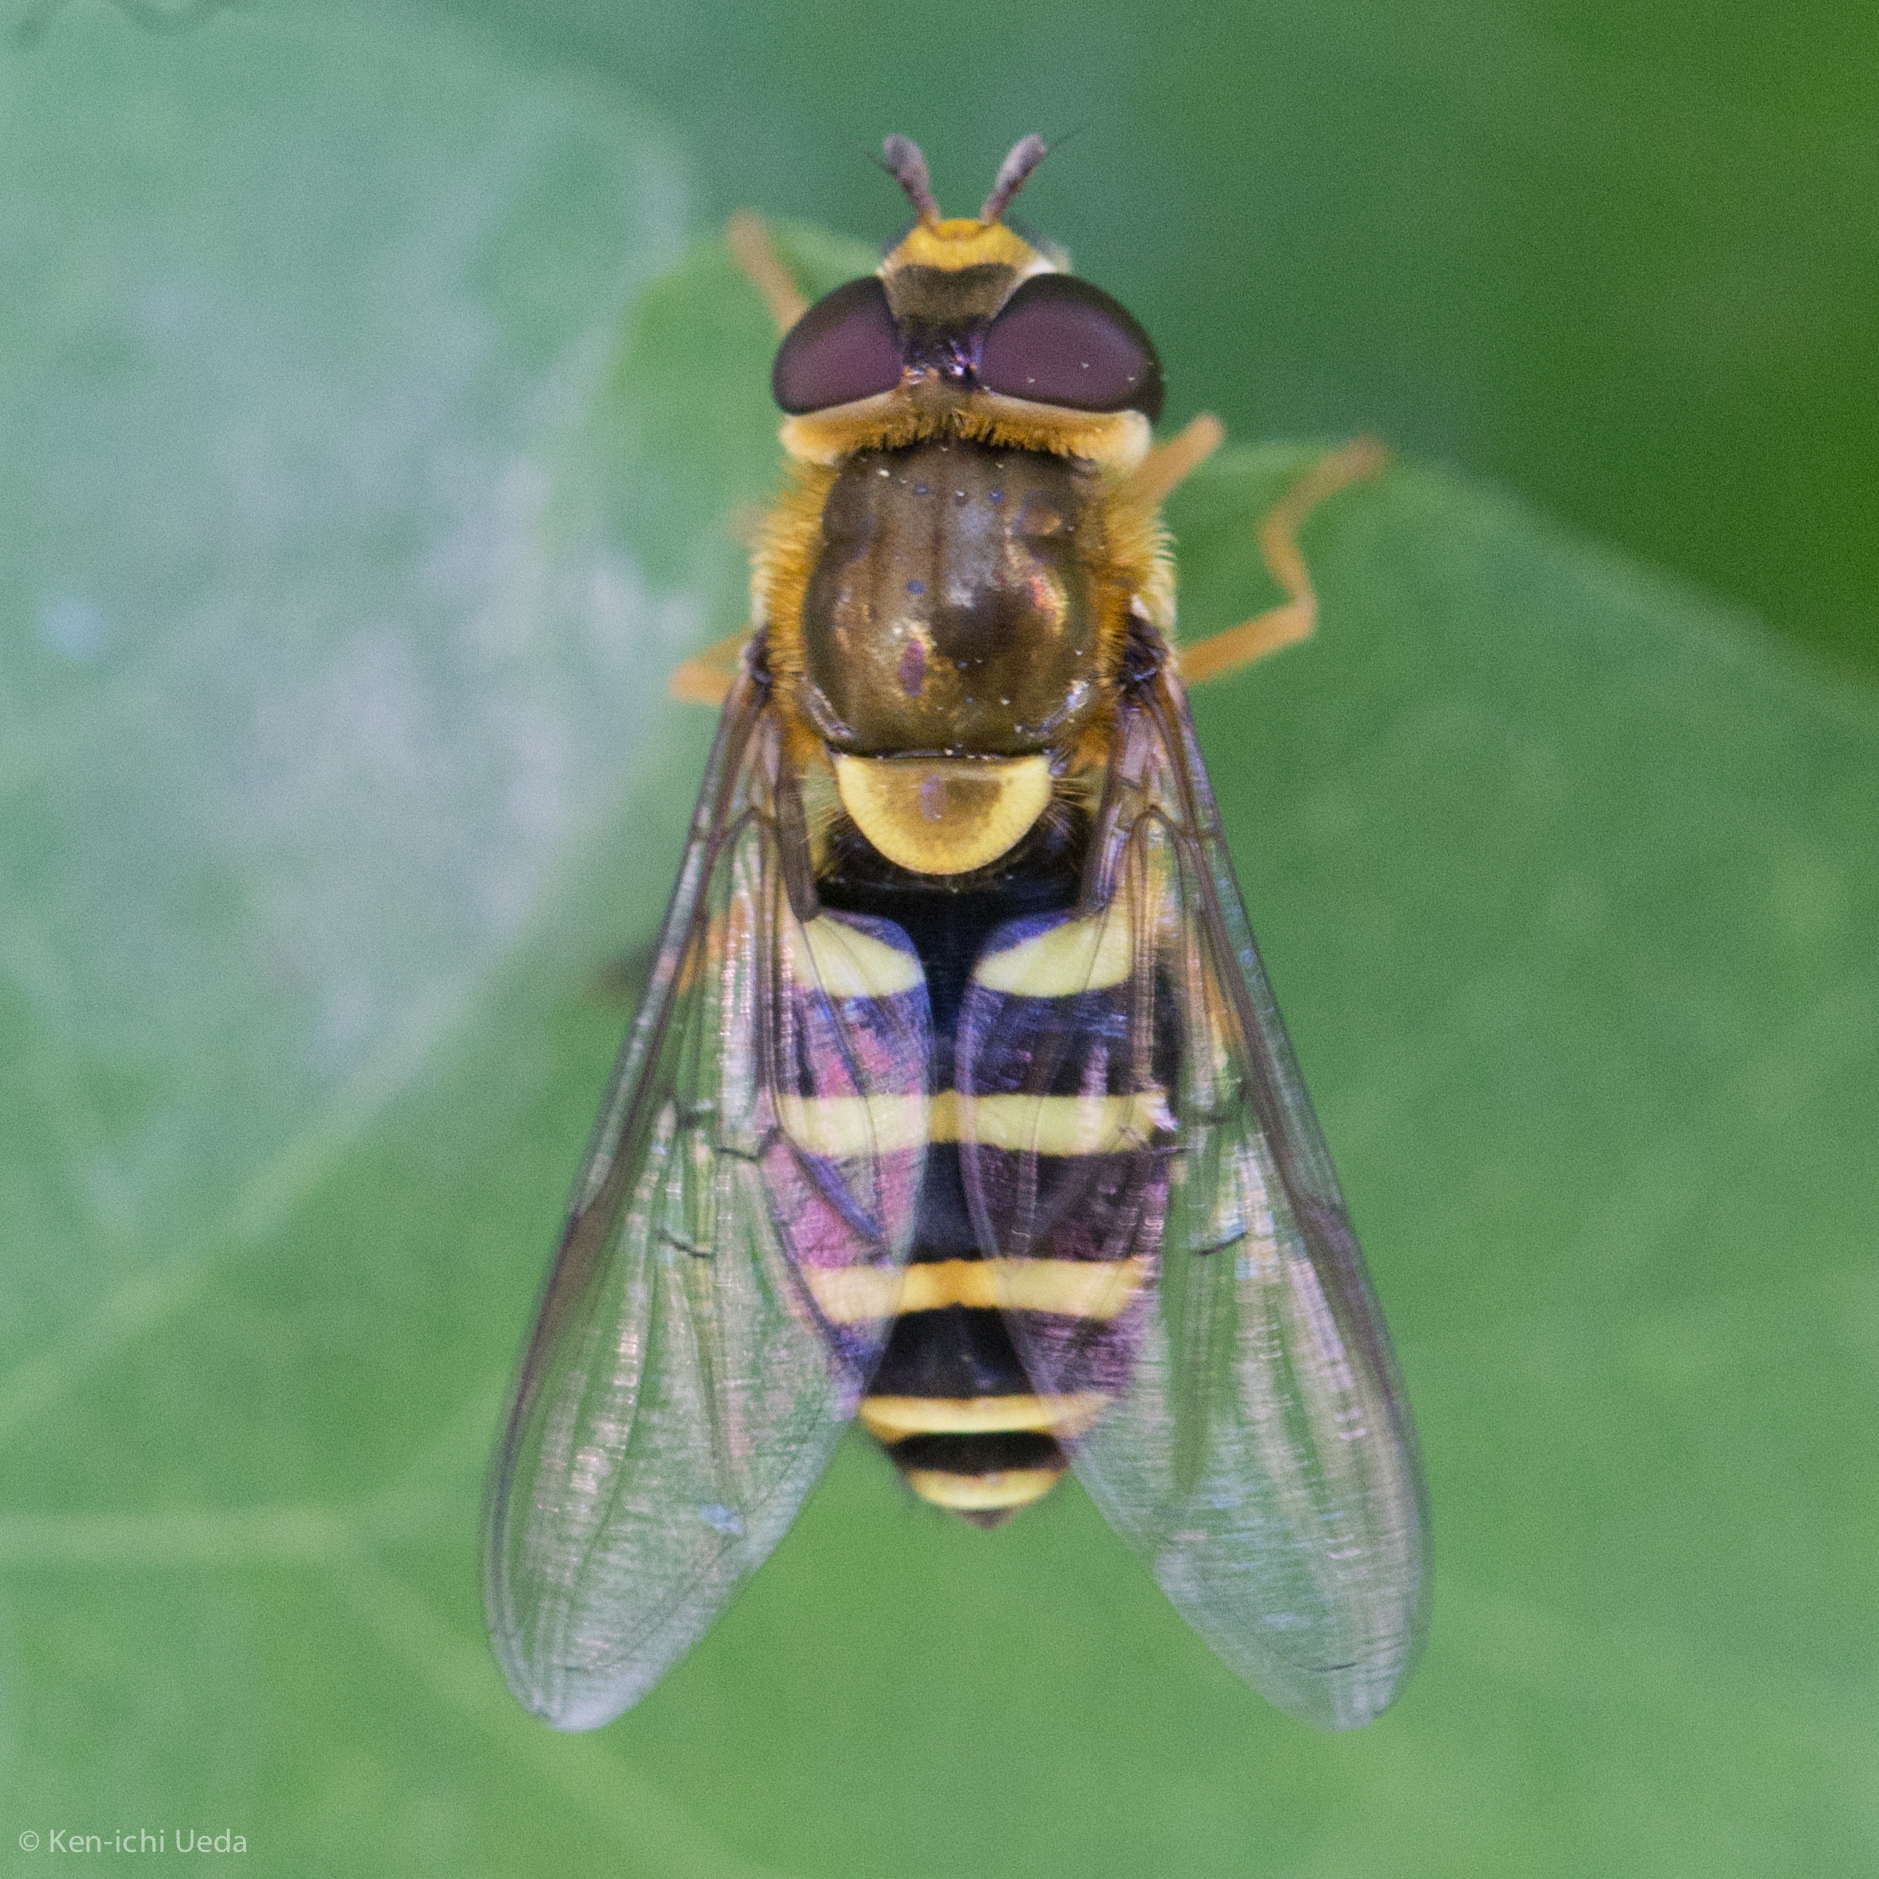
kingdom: Animalia
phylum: Arthropoda
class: Insecta
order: Diptera
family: Syrphidae
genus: Syrphus
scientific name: Syrphus opinator
